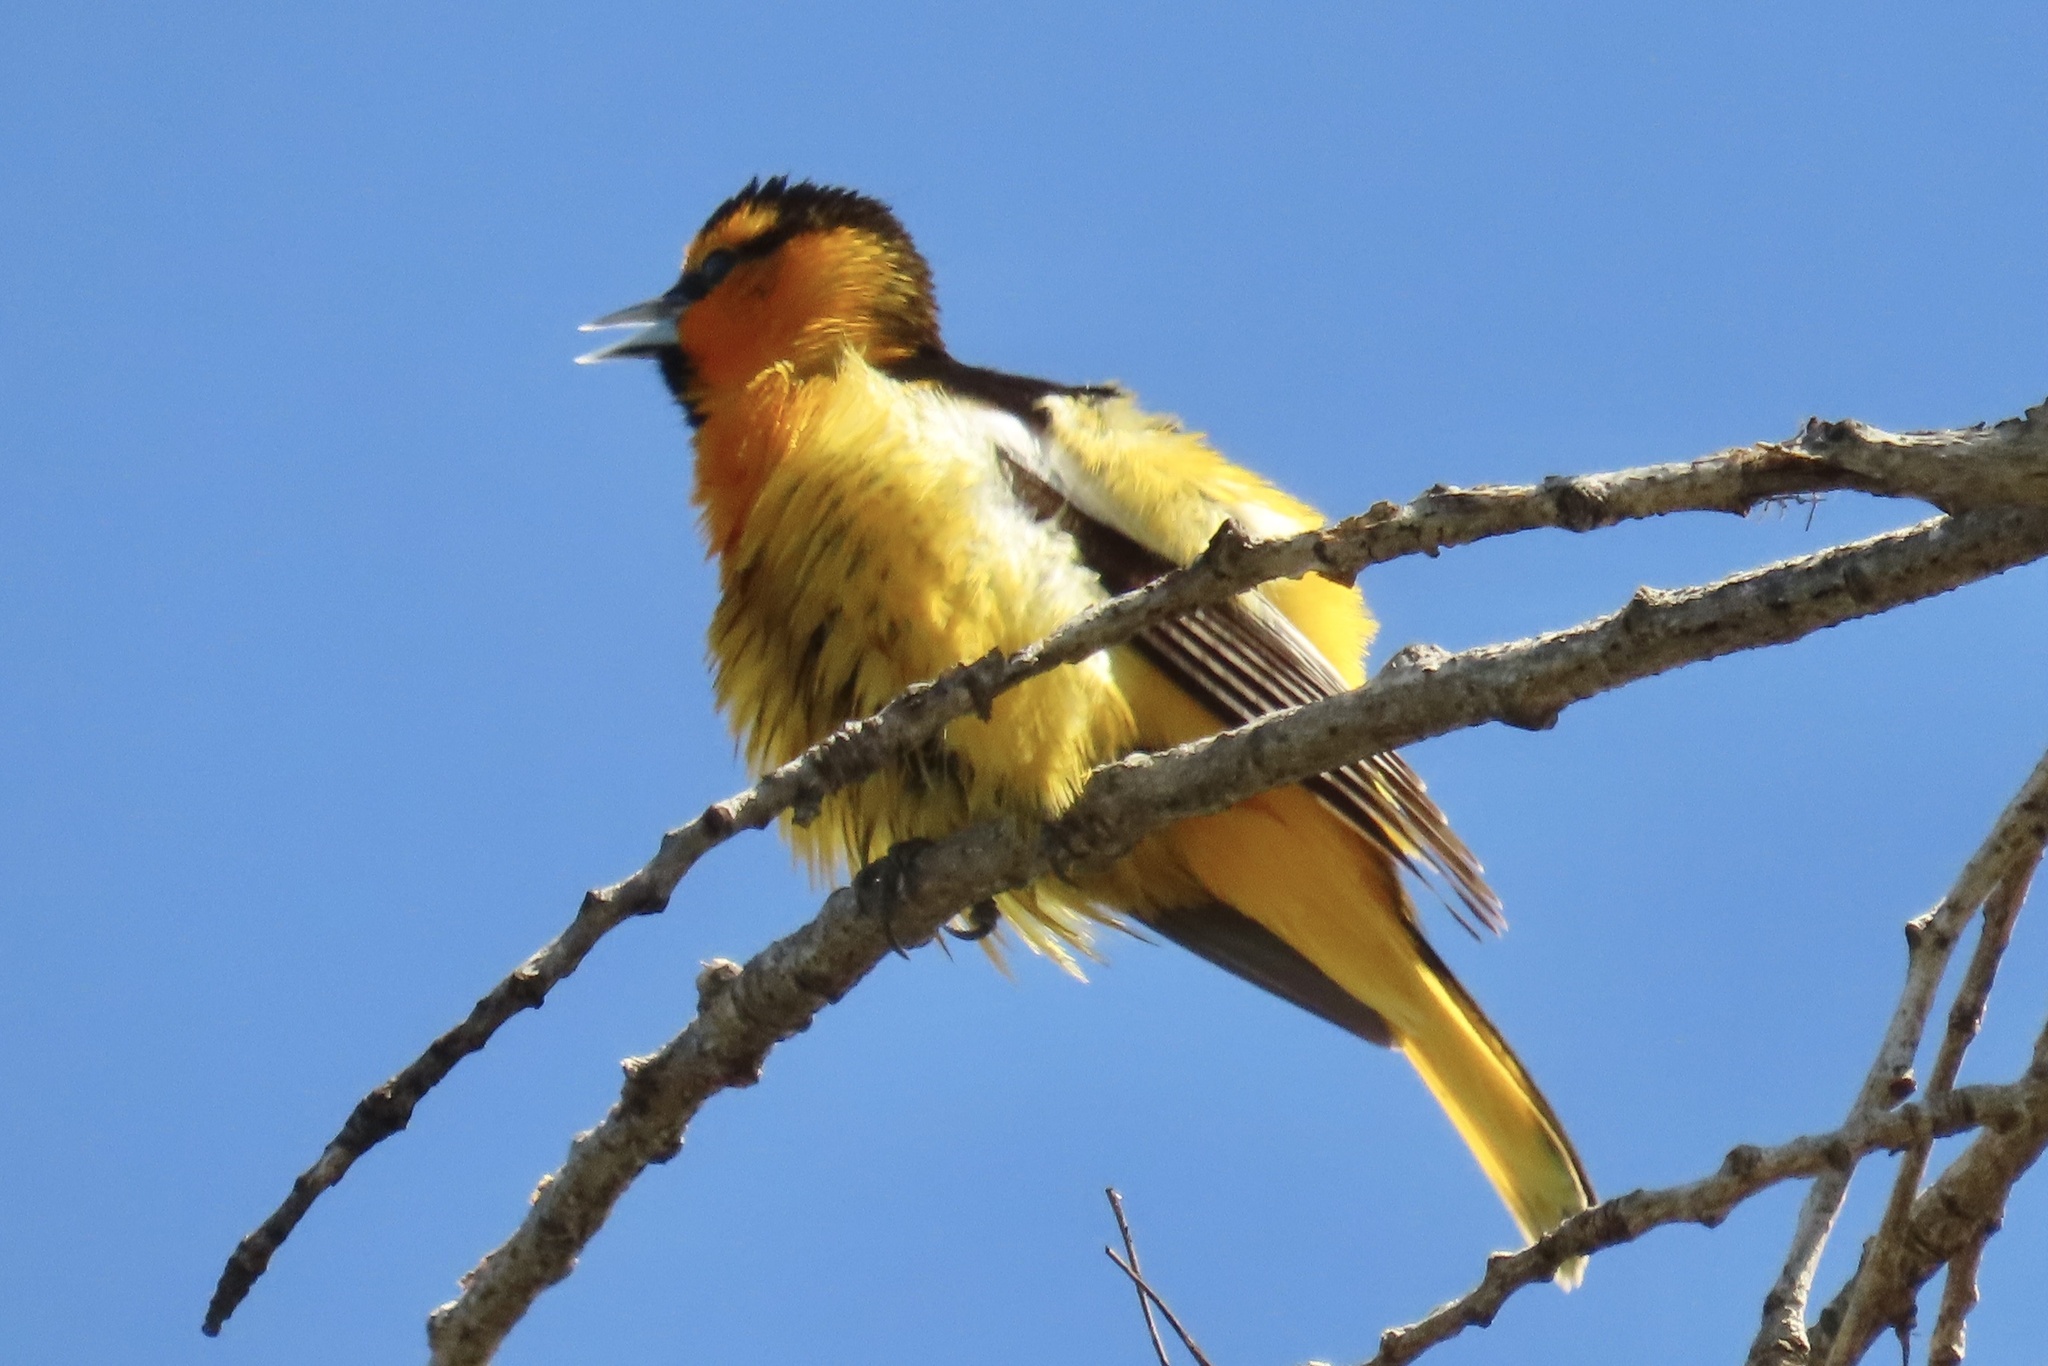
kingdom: Animalia
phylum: Chordata
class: Aves
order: Passeriformes
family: Icteridae
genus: Icterus
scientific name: Icterus bullockii
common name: Bullock's oriole
